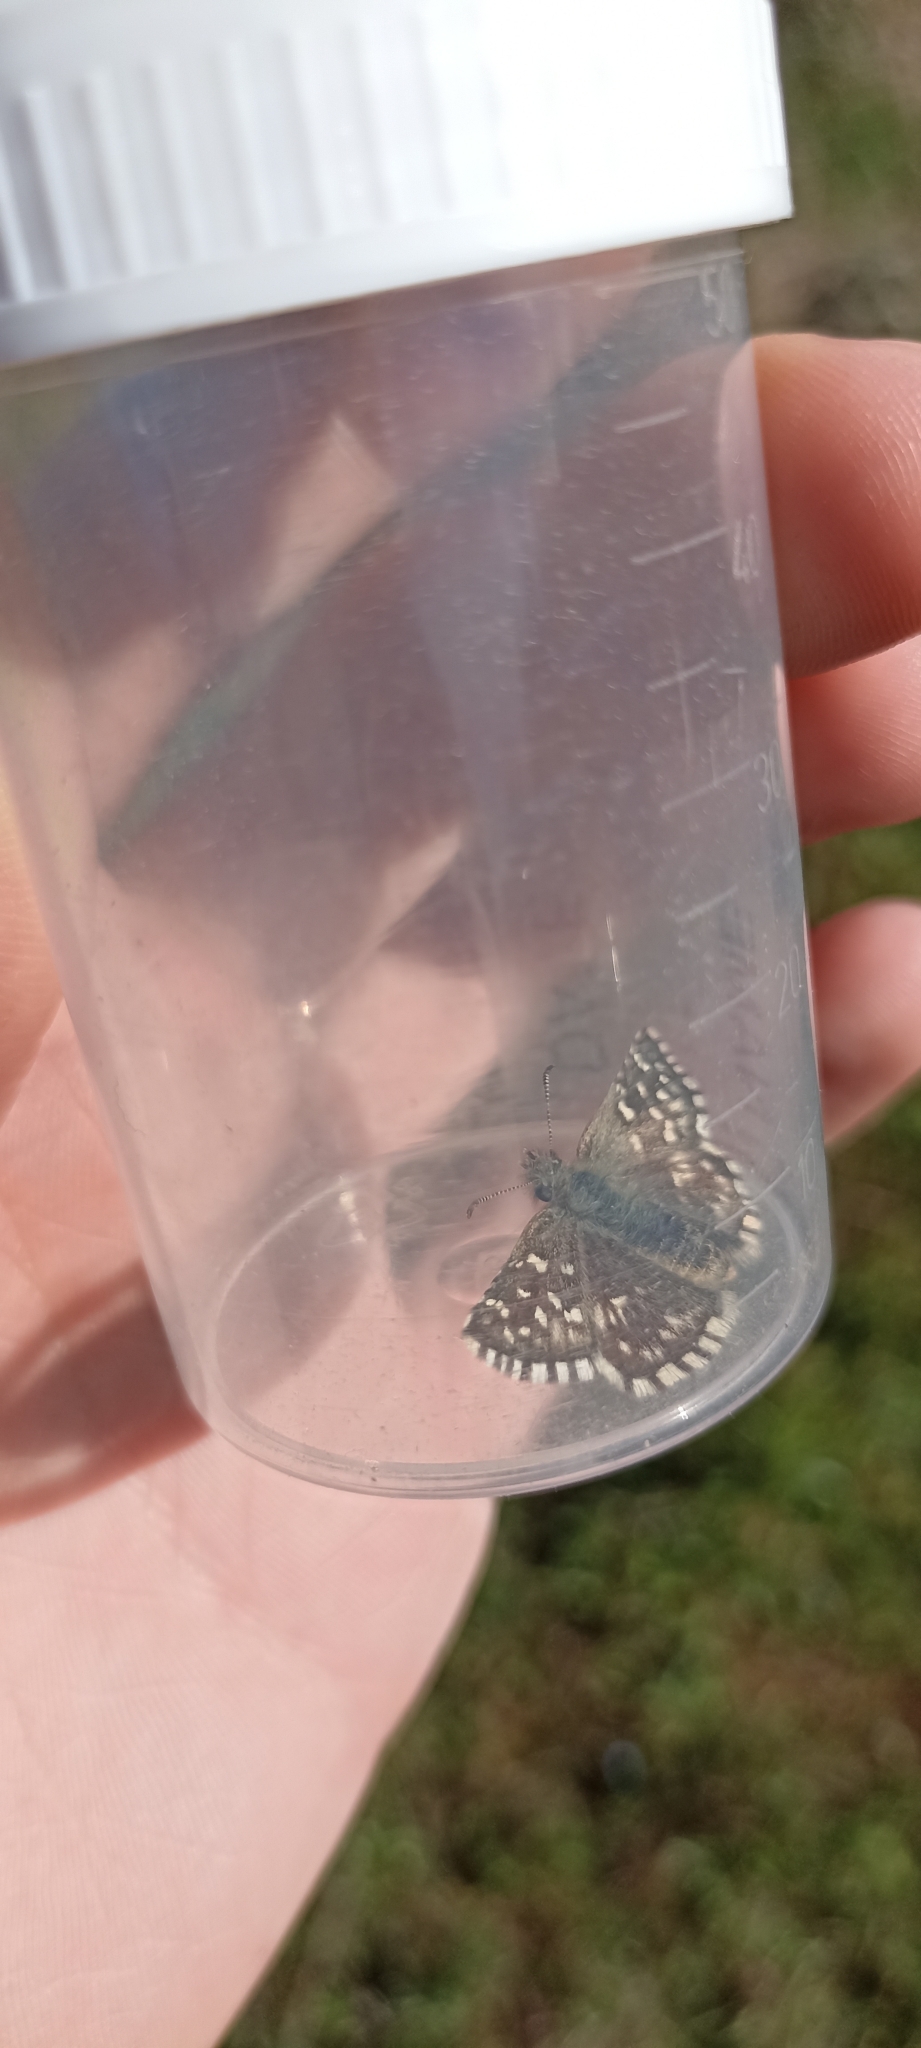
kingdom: Animalia
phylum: Arthropoda
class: Insecta
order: Lepidoptera
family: Hesperiidae
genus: Pyrgus
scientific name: Pyrgus malvoides
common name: Southern grizzled skipper
